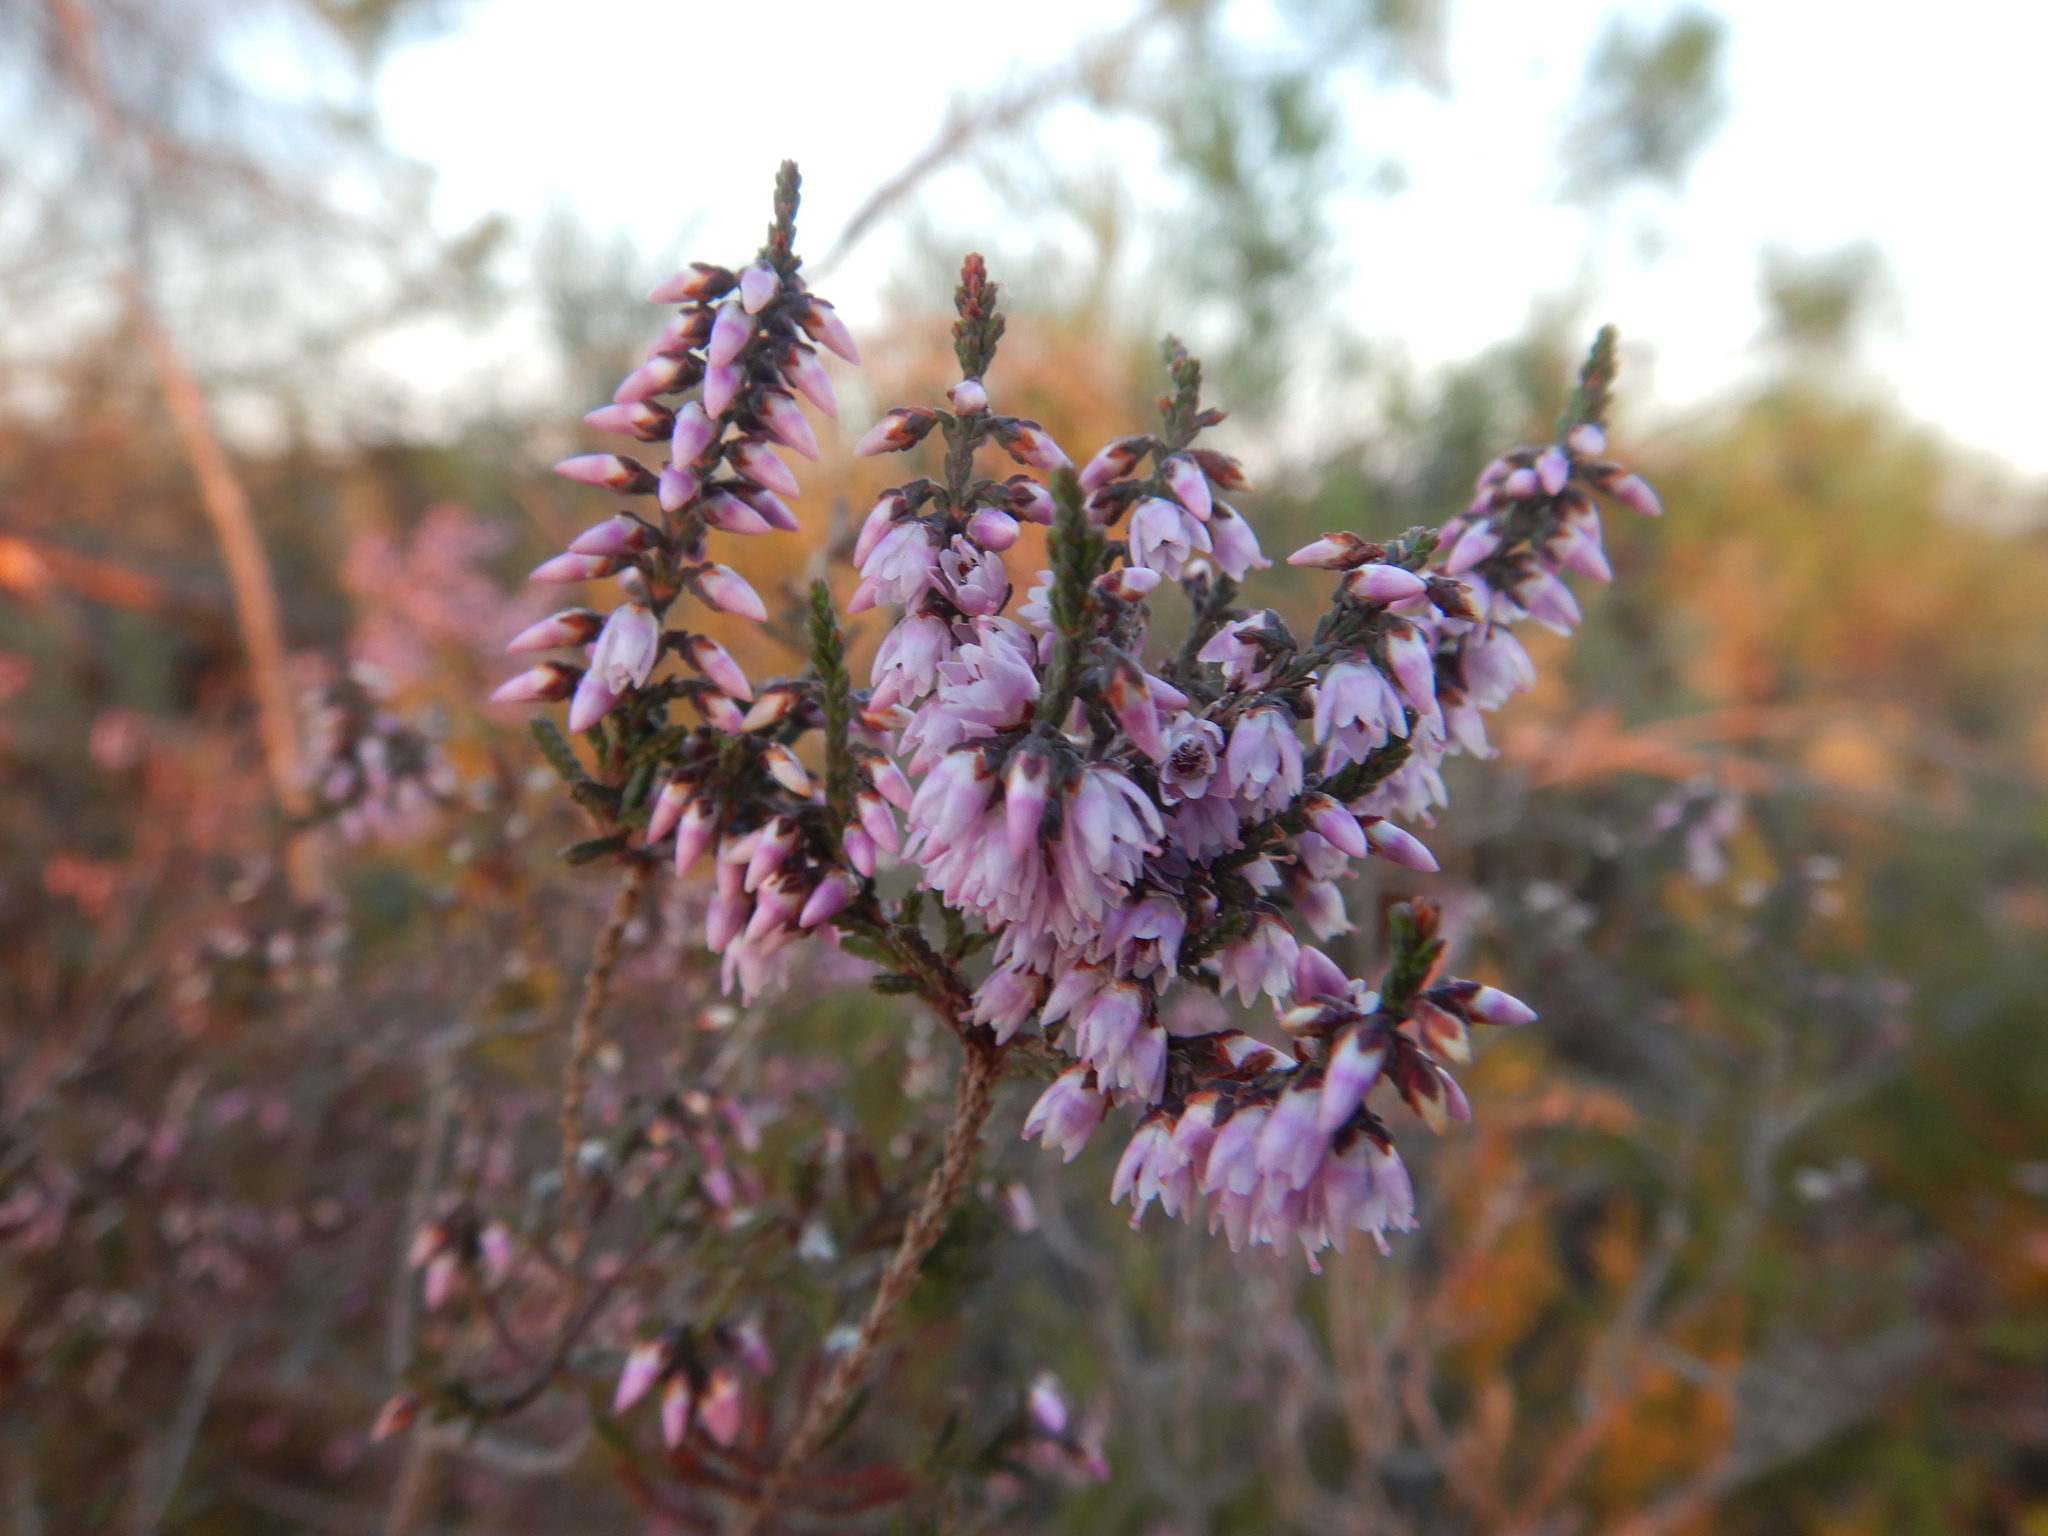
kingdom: Plantae
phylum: Tracheophyta
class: Magnoliopsida
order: Ericales
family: Ericaceae
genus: Calluna
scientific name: Calluna vulgaris
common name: Heather
